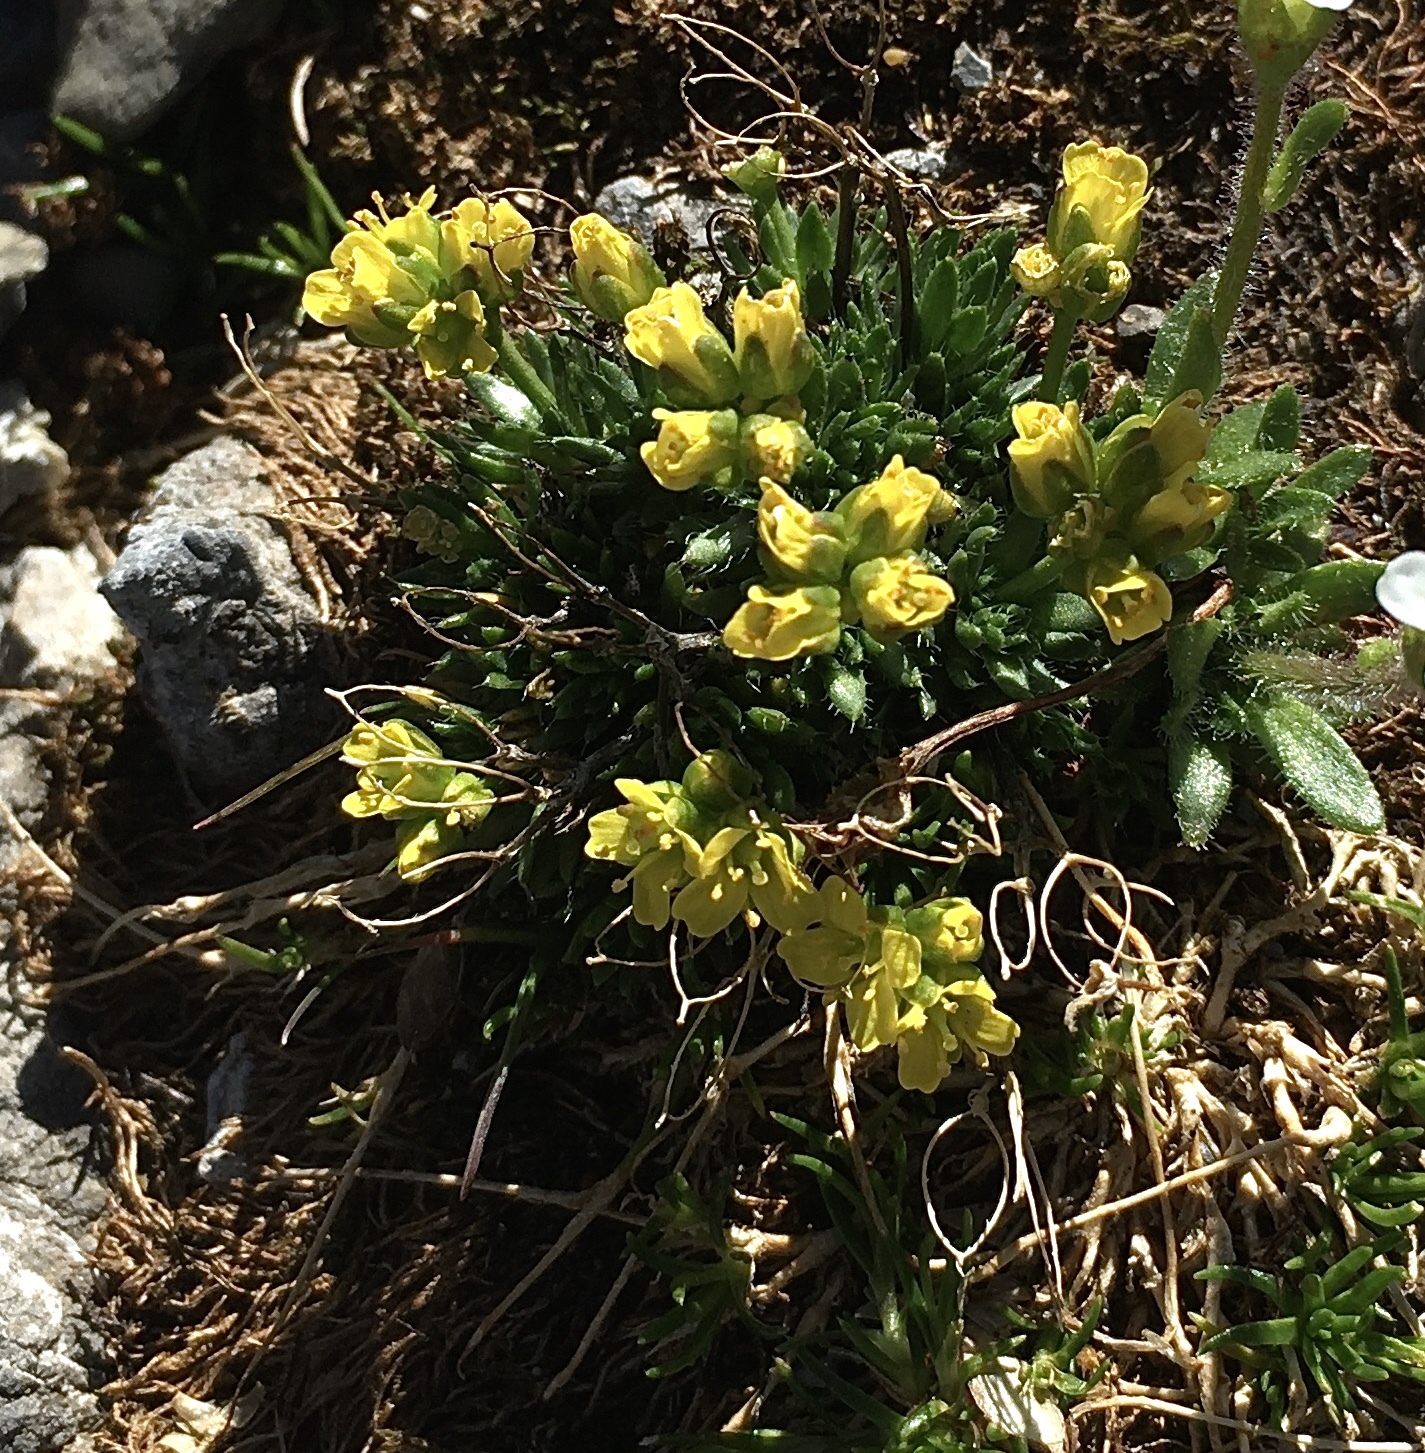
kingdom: Plantae
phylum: Tracheophyta
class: Magnoliopsida
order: Brassicales
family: Brassicaceae
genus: Draba
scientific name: Draba hoppeana
